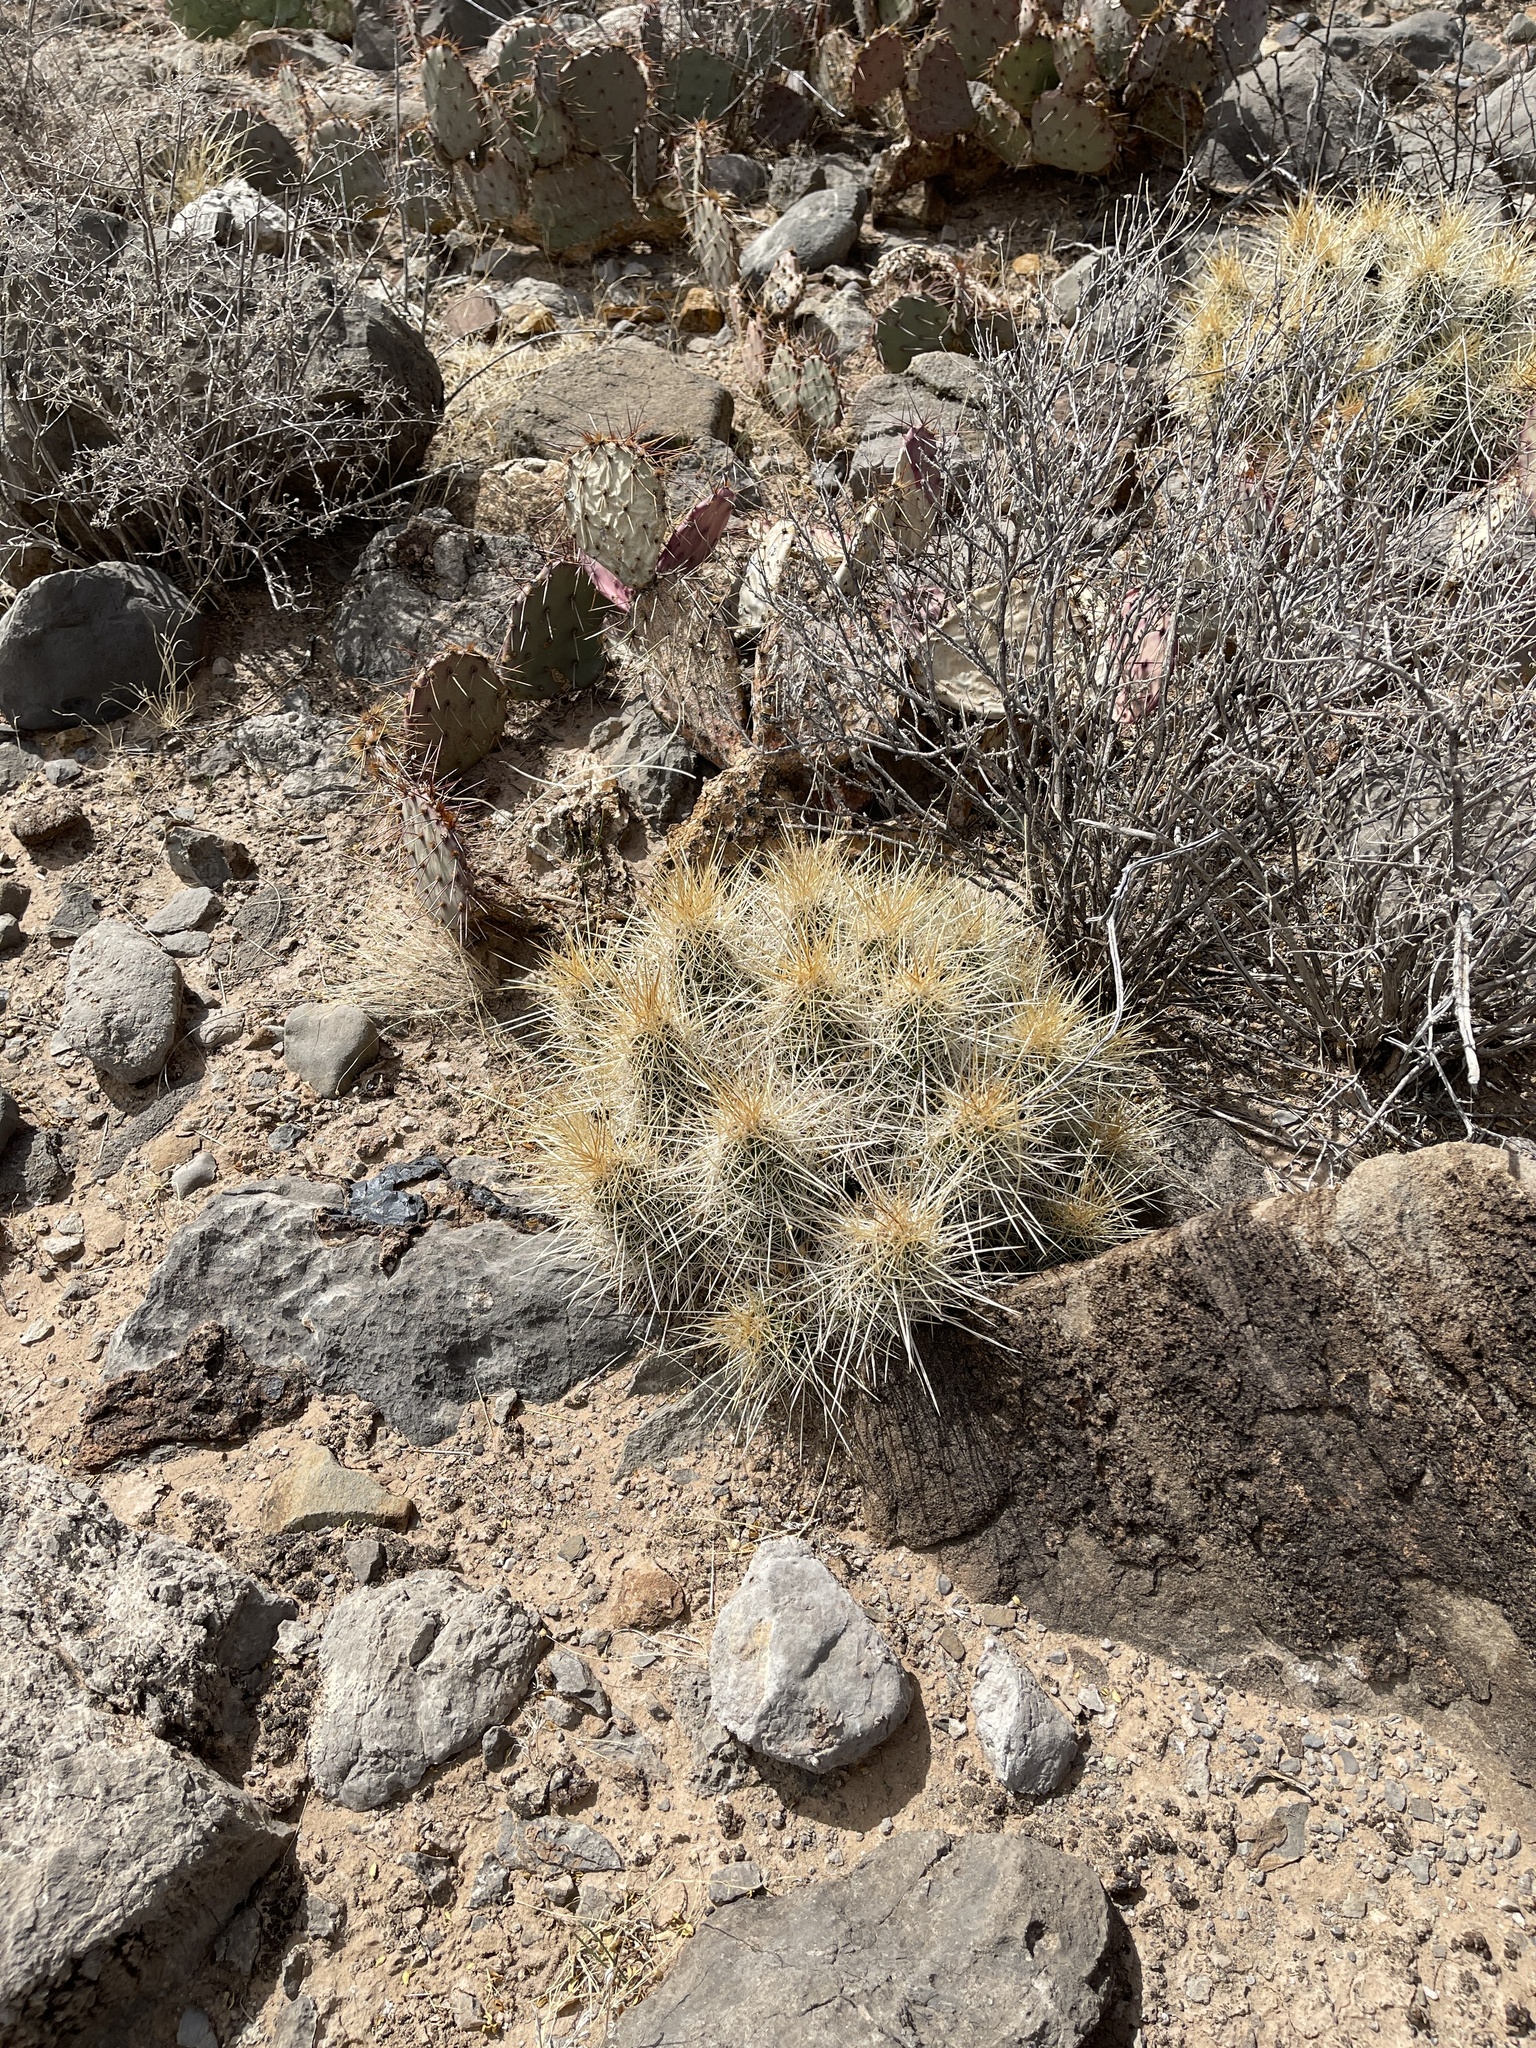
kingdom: Plantae
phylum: Tracheophyta
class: Magnoliopsida
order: Caryophyllales
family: Cactaceae
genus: Echinocereus
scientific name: Echinocereus stramineus
